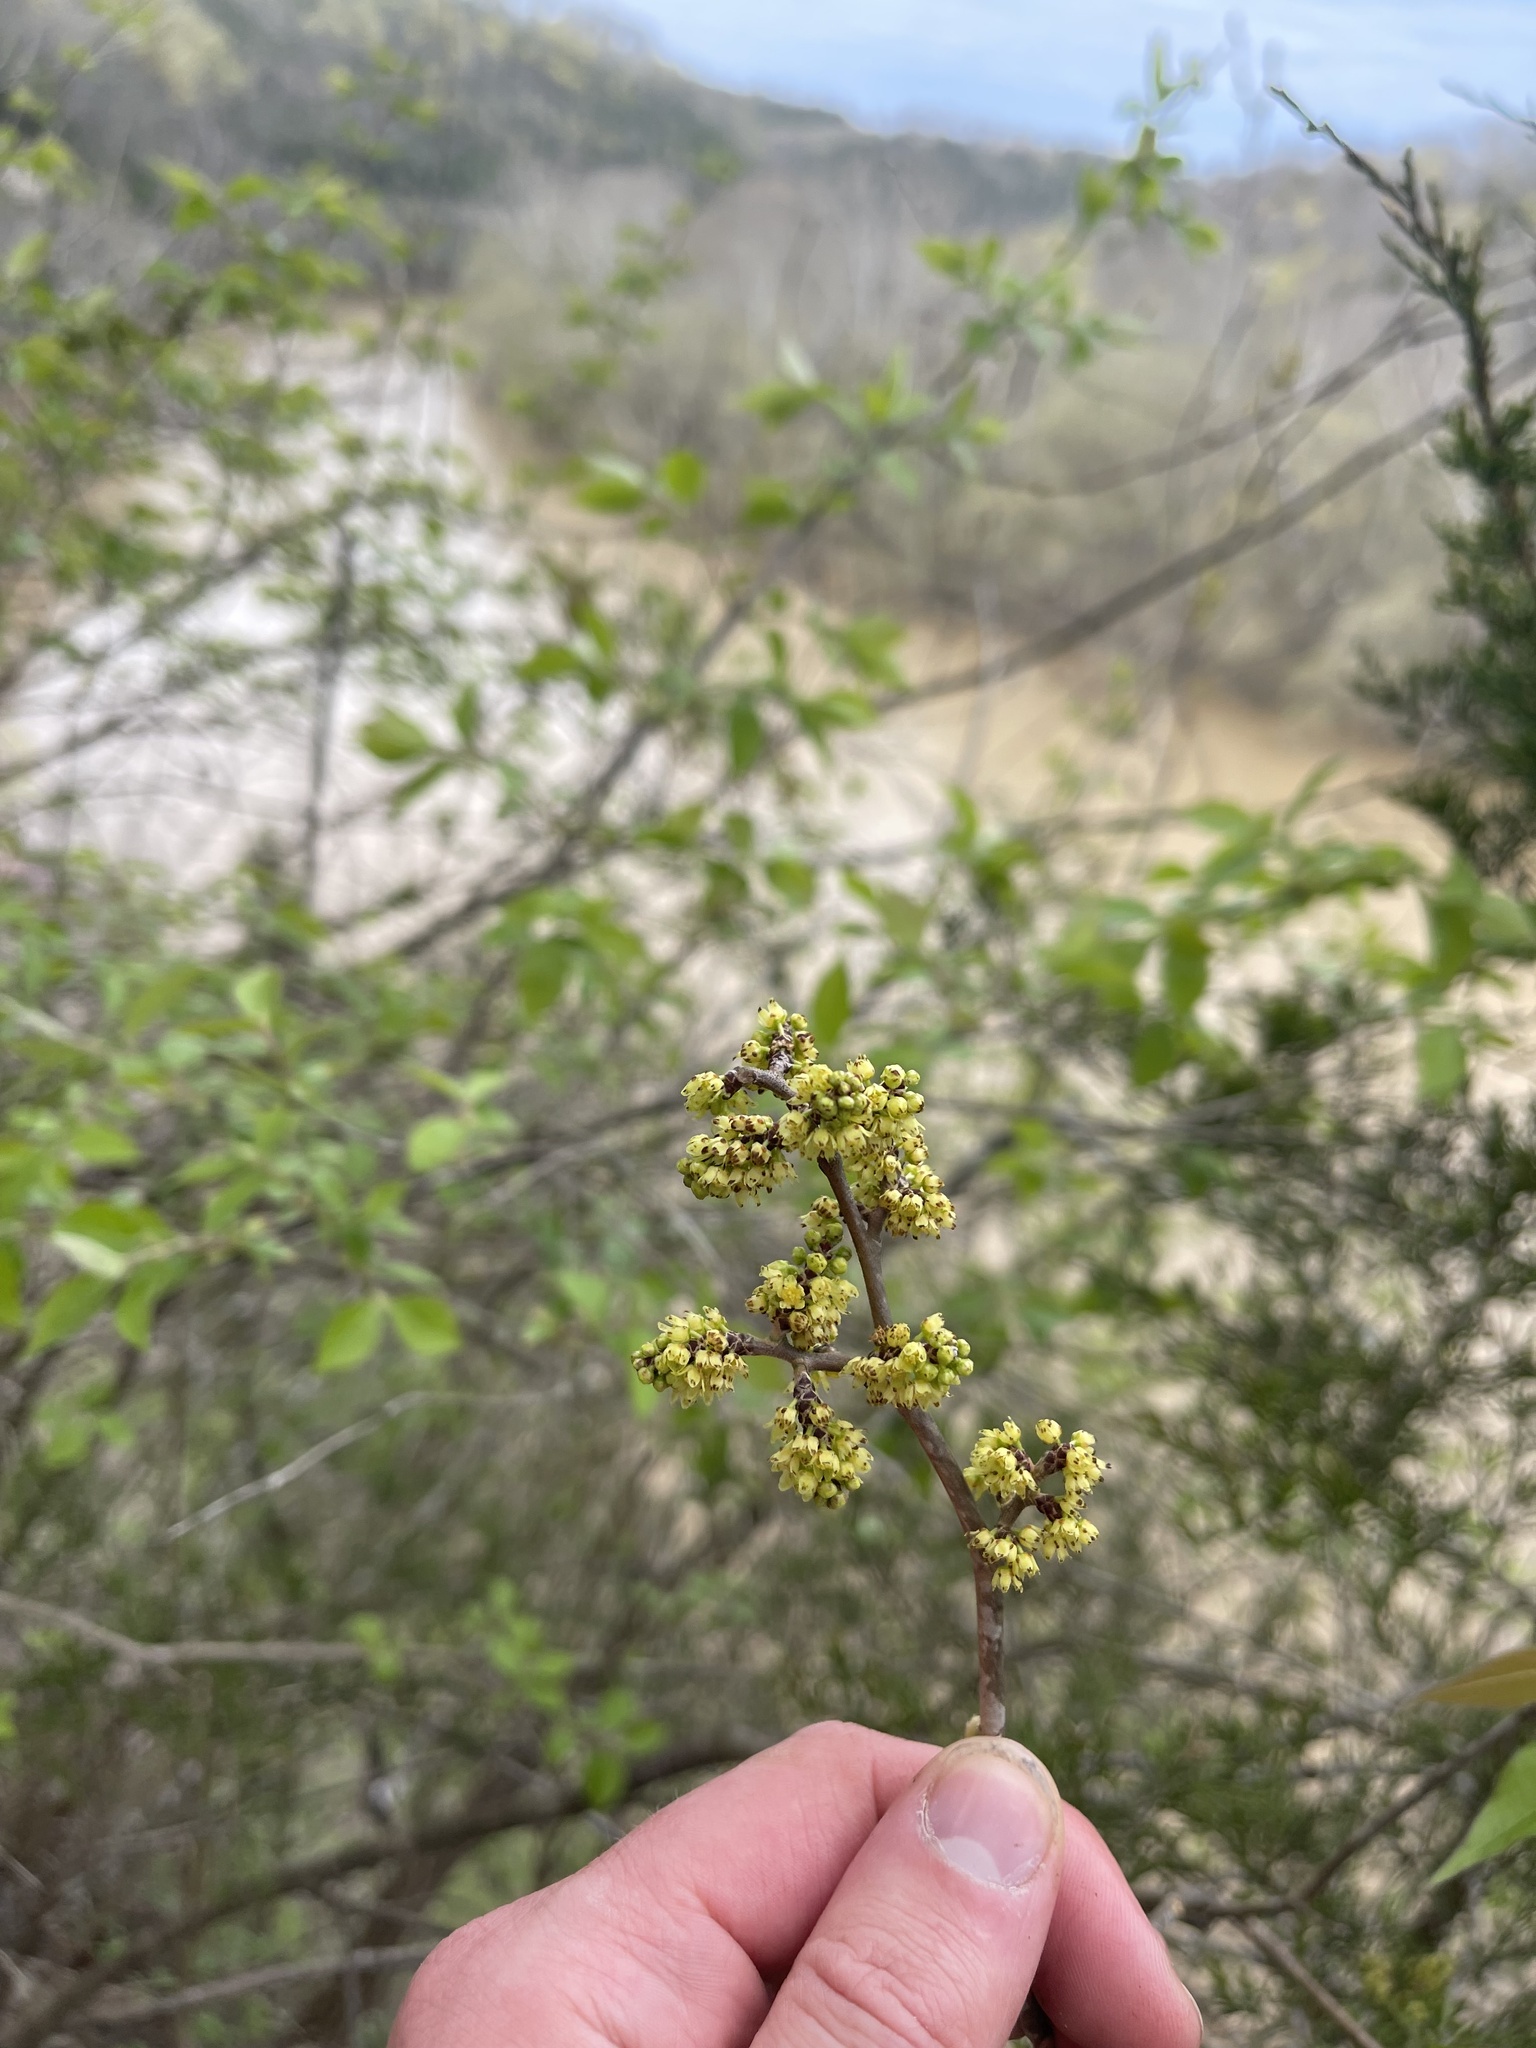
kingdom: Plantae
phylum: Tracheophyta
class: Magnoliopsida
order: Sapindales
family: Anacardiaceae
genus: Rhus
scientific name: Rhus aromatica
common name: Aromatic sumac
